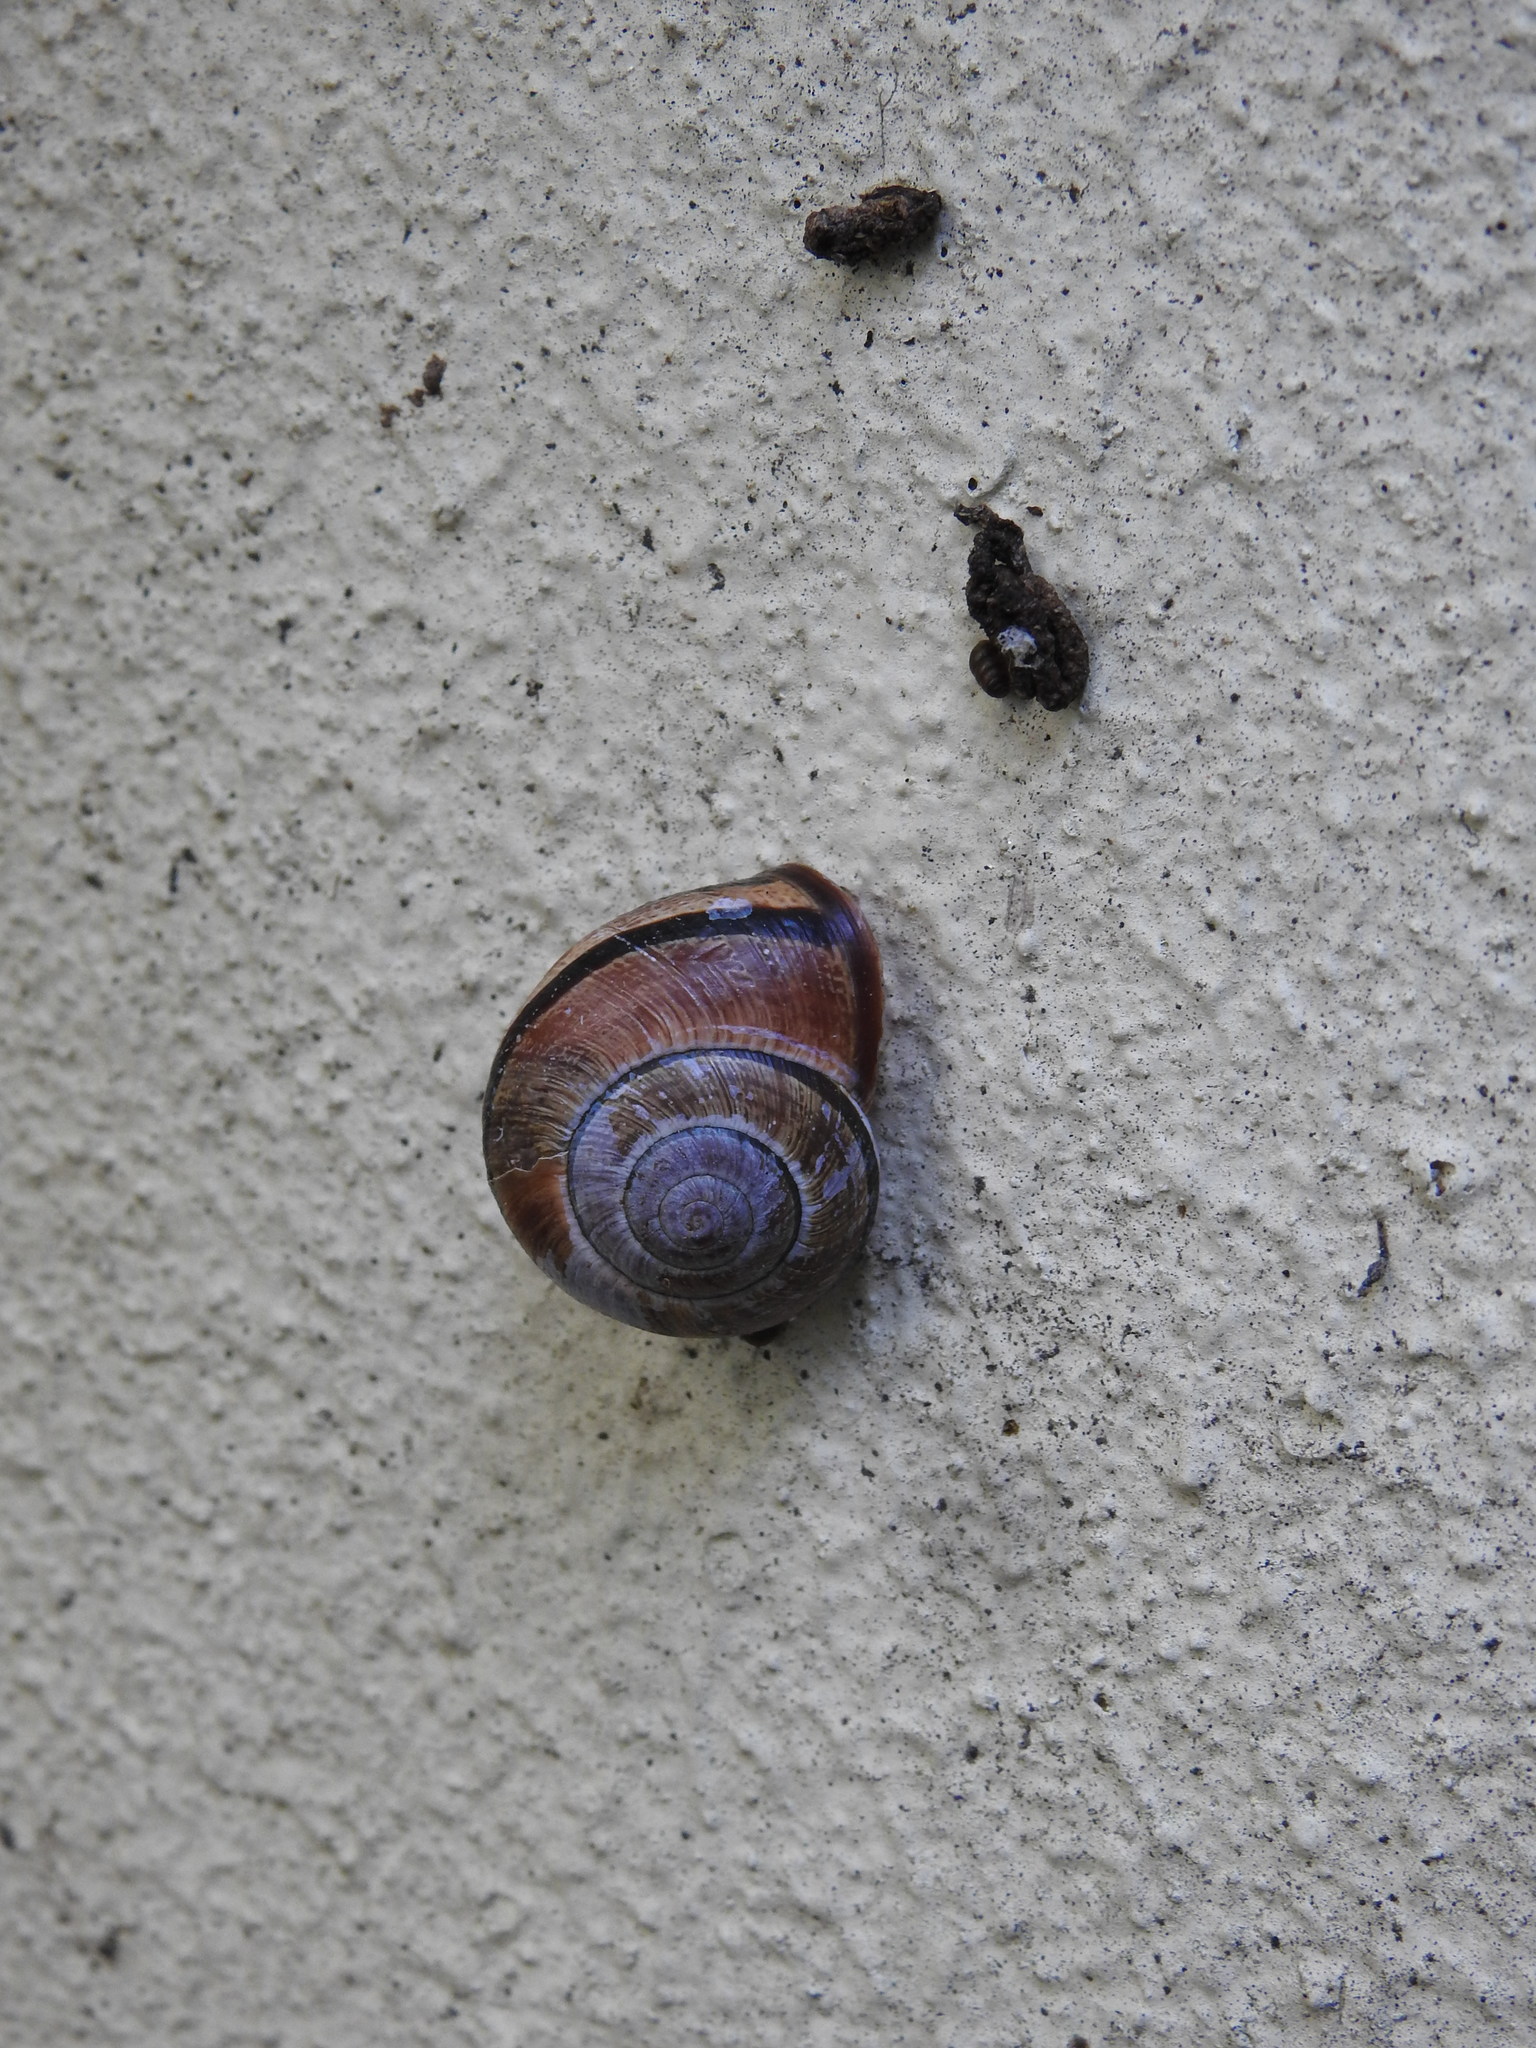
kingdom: Animalia
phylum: Mollusca
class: Gastropoda
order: Stylommatophora
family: Helicidae
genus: Cepaea
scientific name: Cepaea nemoralis
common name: Grovesnail
